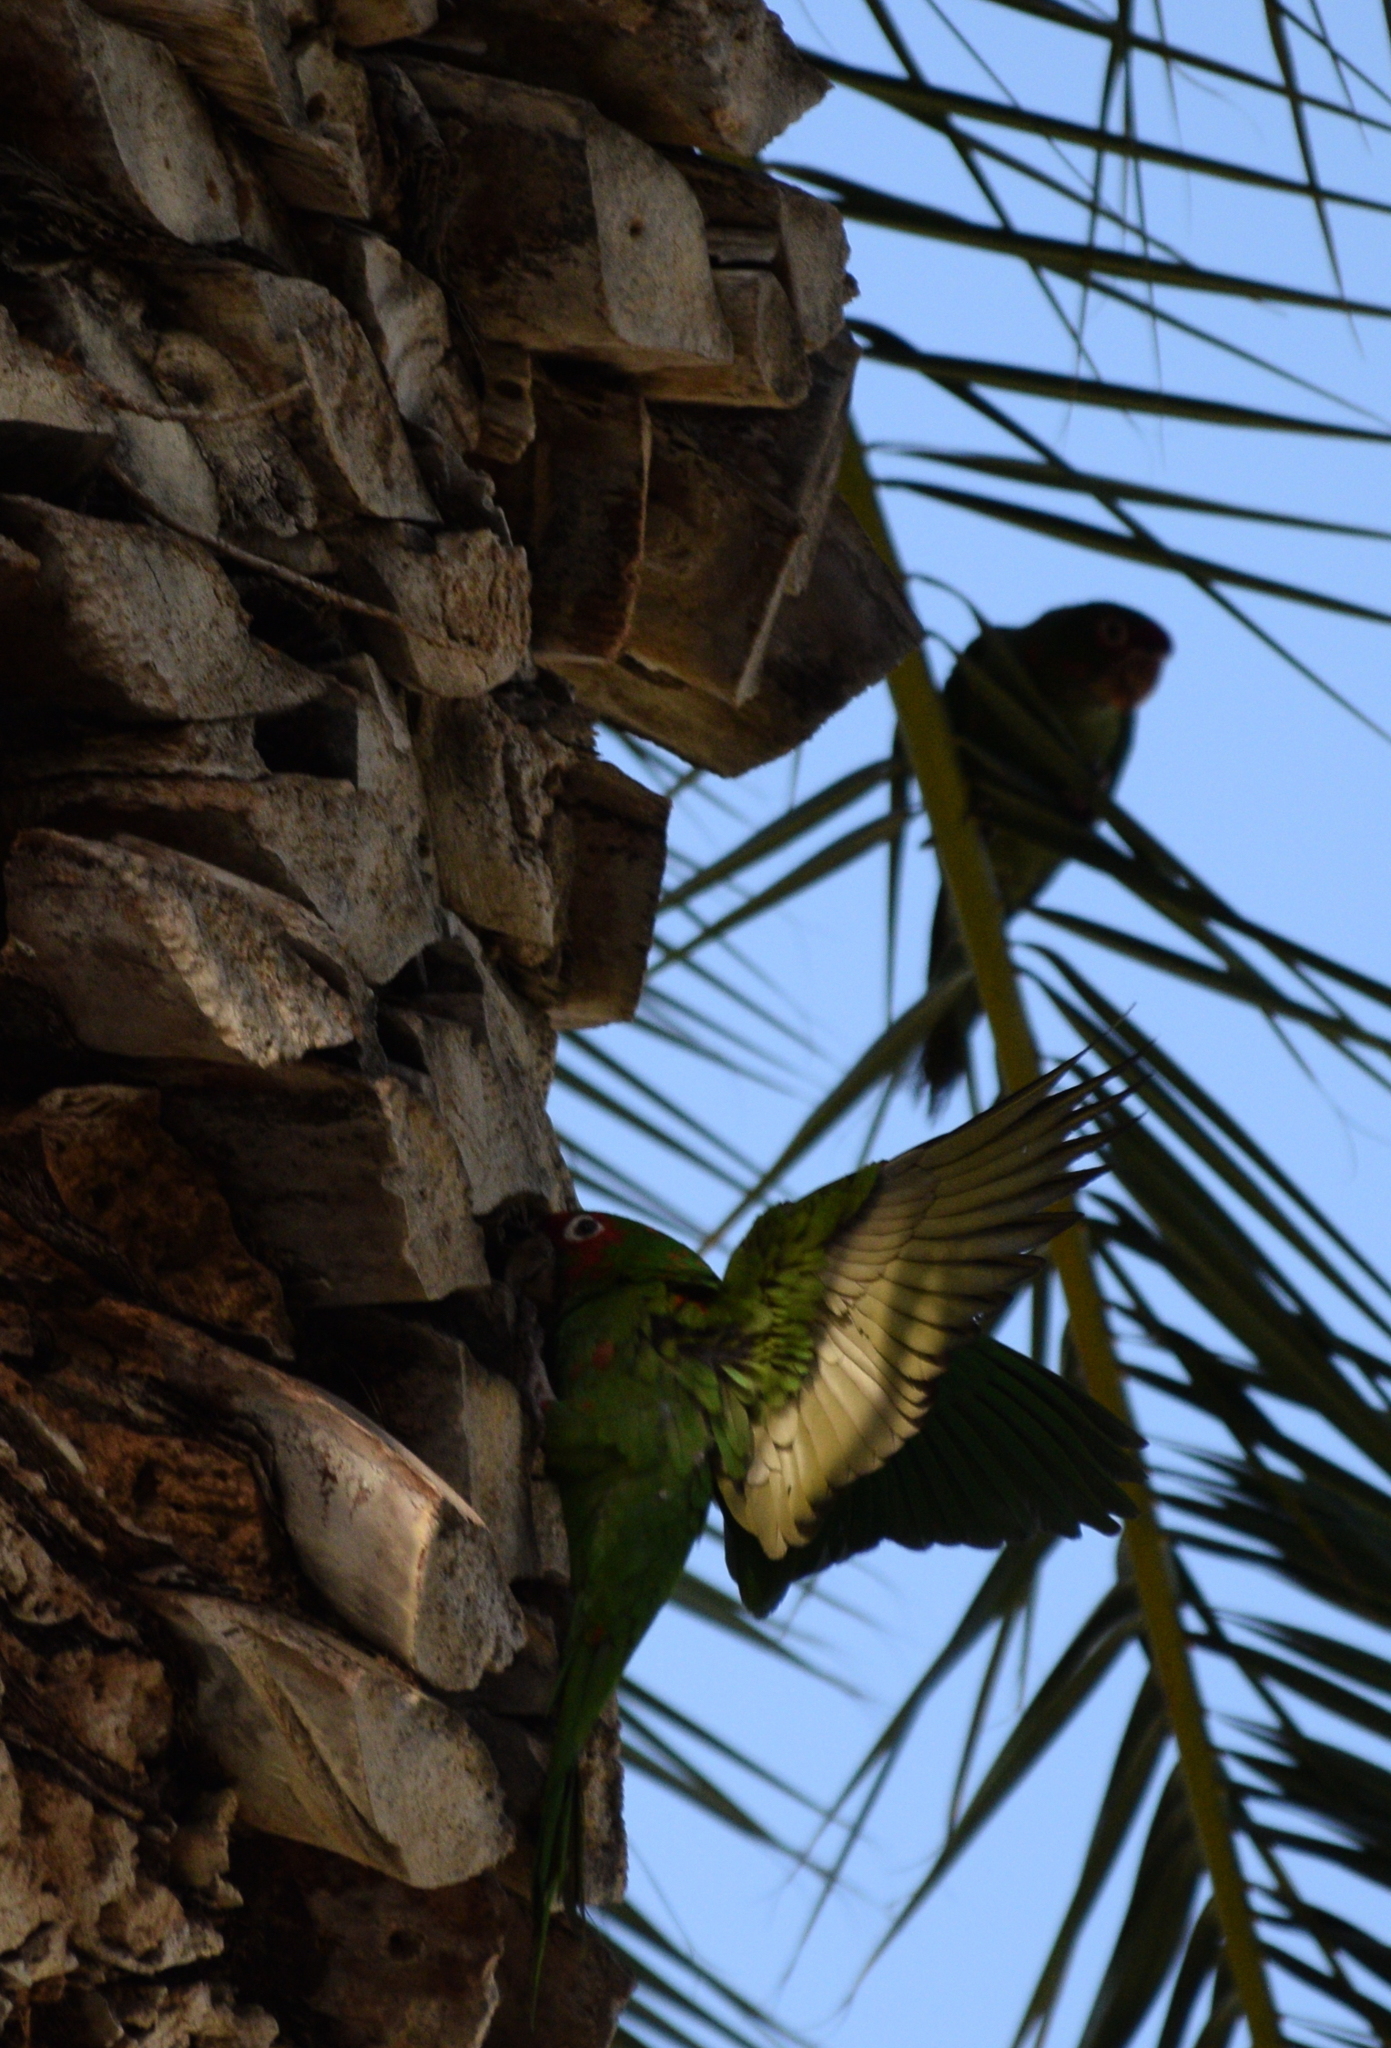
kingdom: Animalia
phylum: Chordata
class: Aves
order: Psittaciformes
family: Psittacidae
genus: Aratinga
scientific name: Aratinga mitrata
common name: Mitred parakeet
